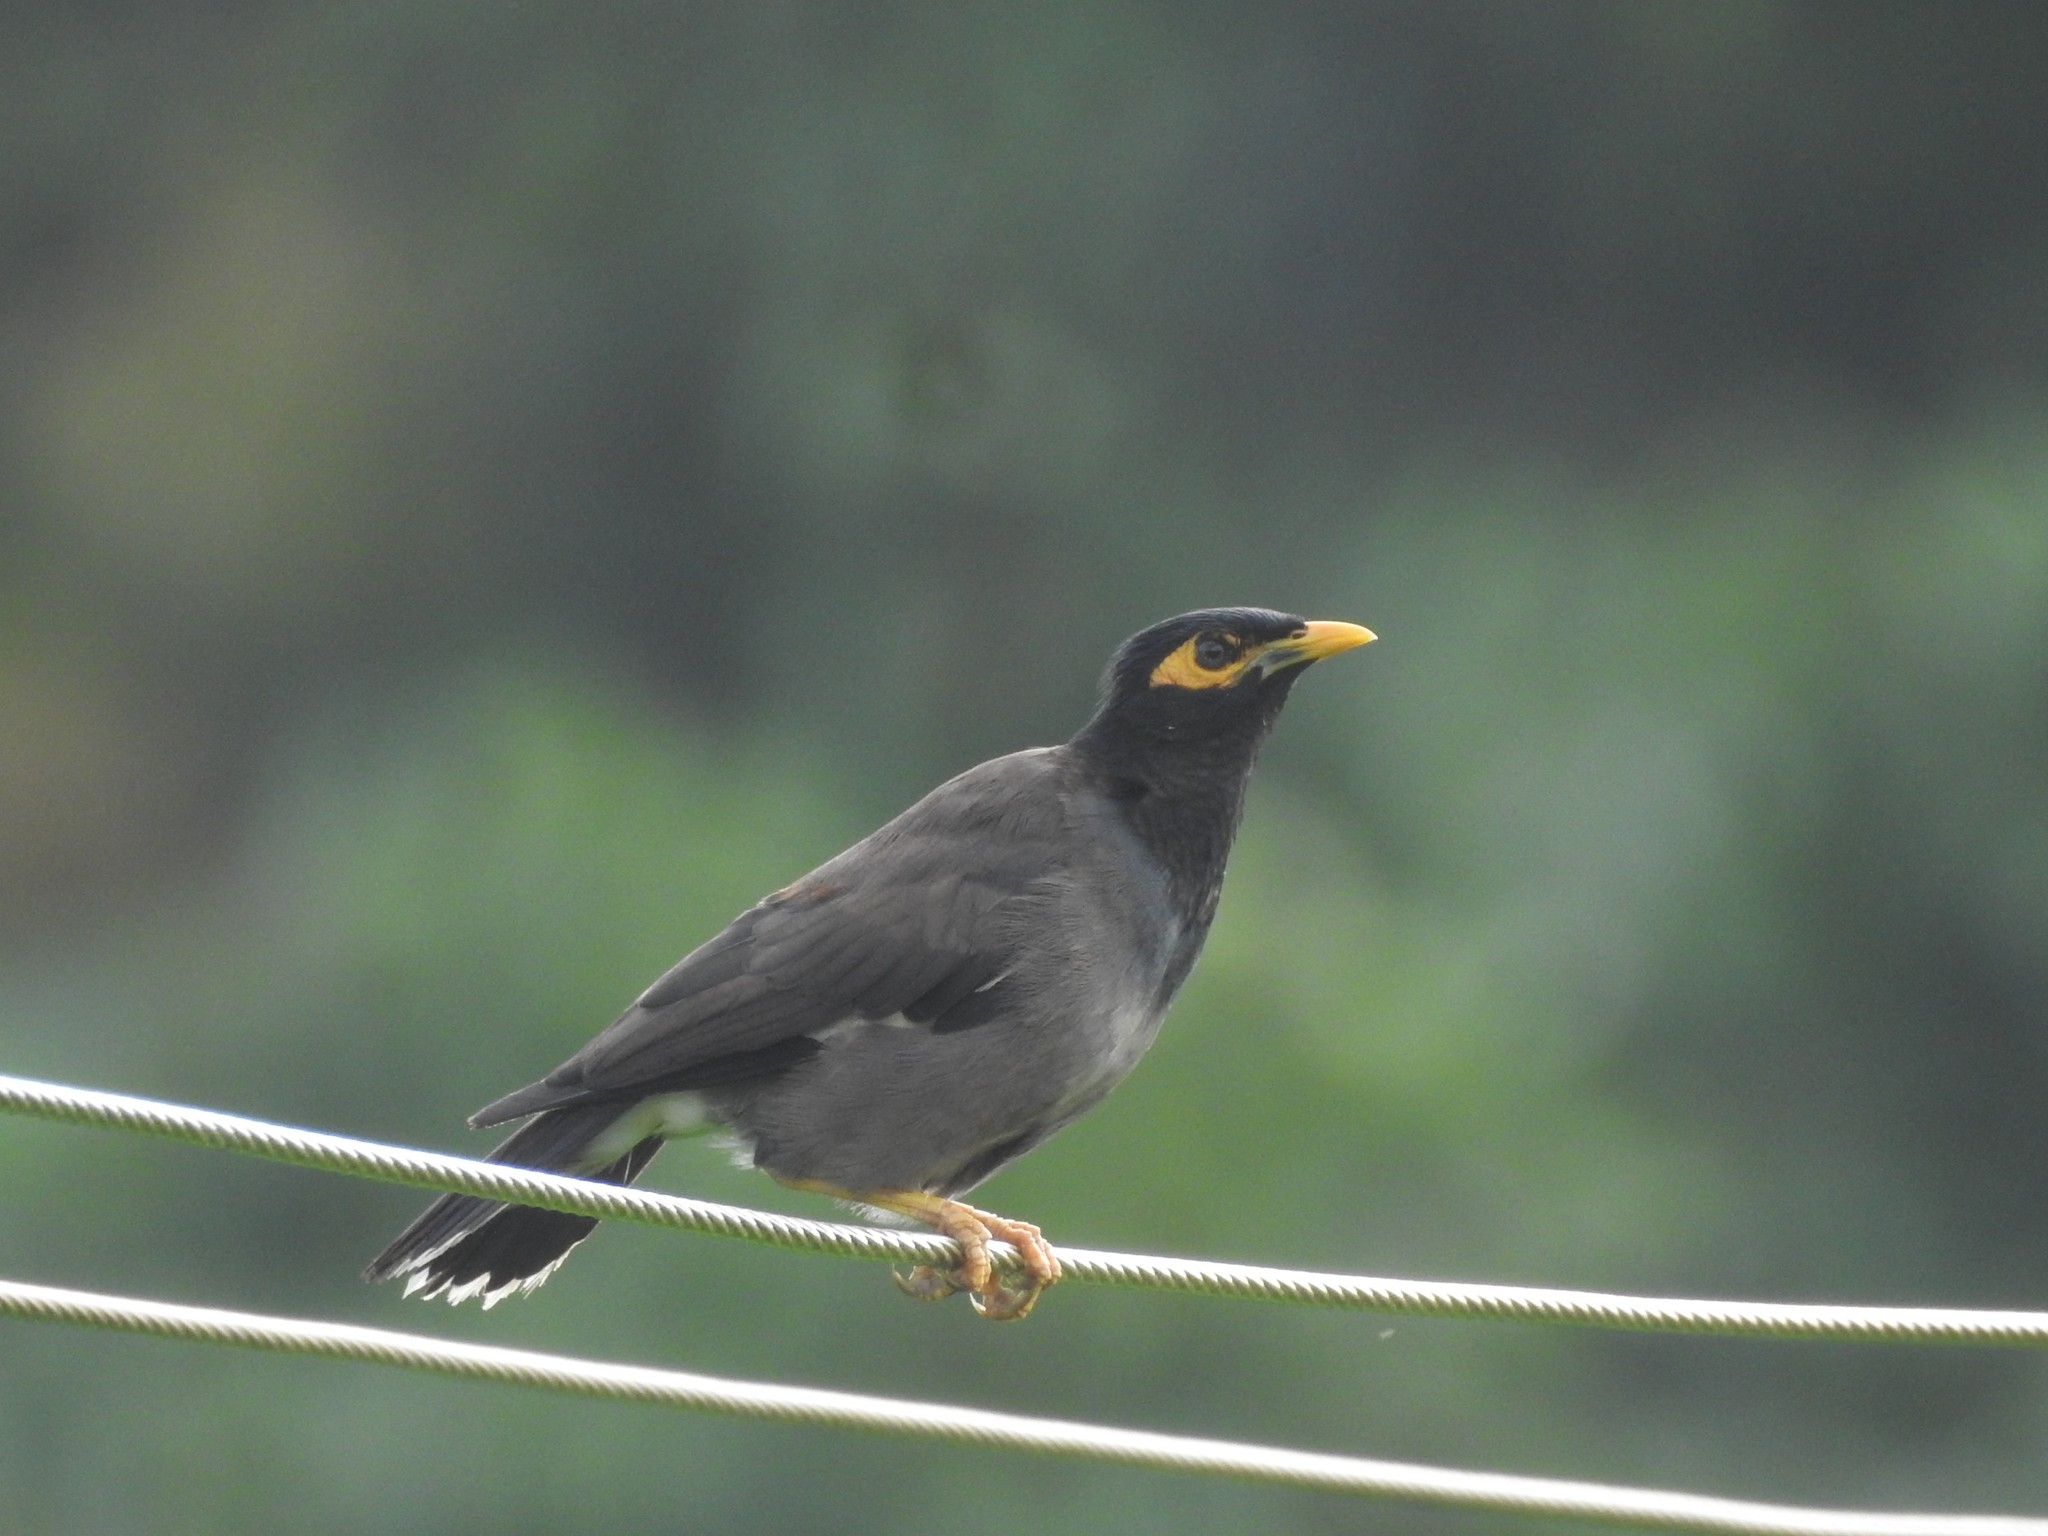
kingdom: Animalia
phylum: Chordata
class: Aves
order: Passeriformes
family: Sturnidae
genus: Acridotheres
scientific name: Acridotheres tristis
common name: Common myna
